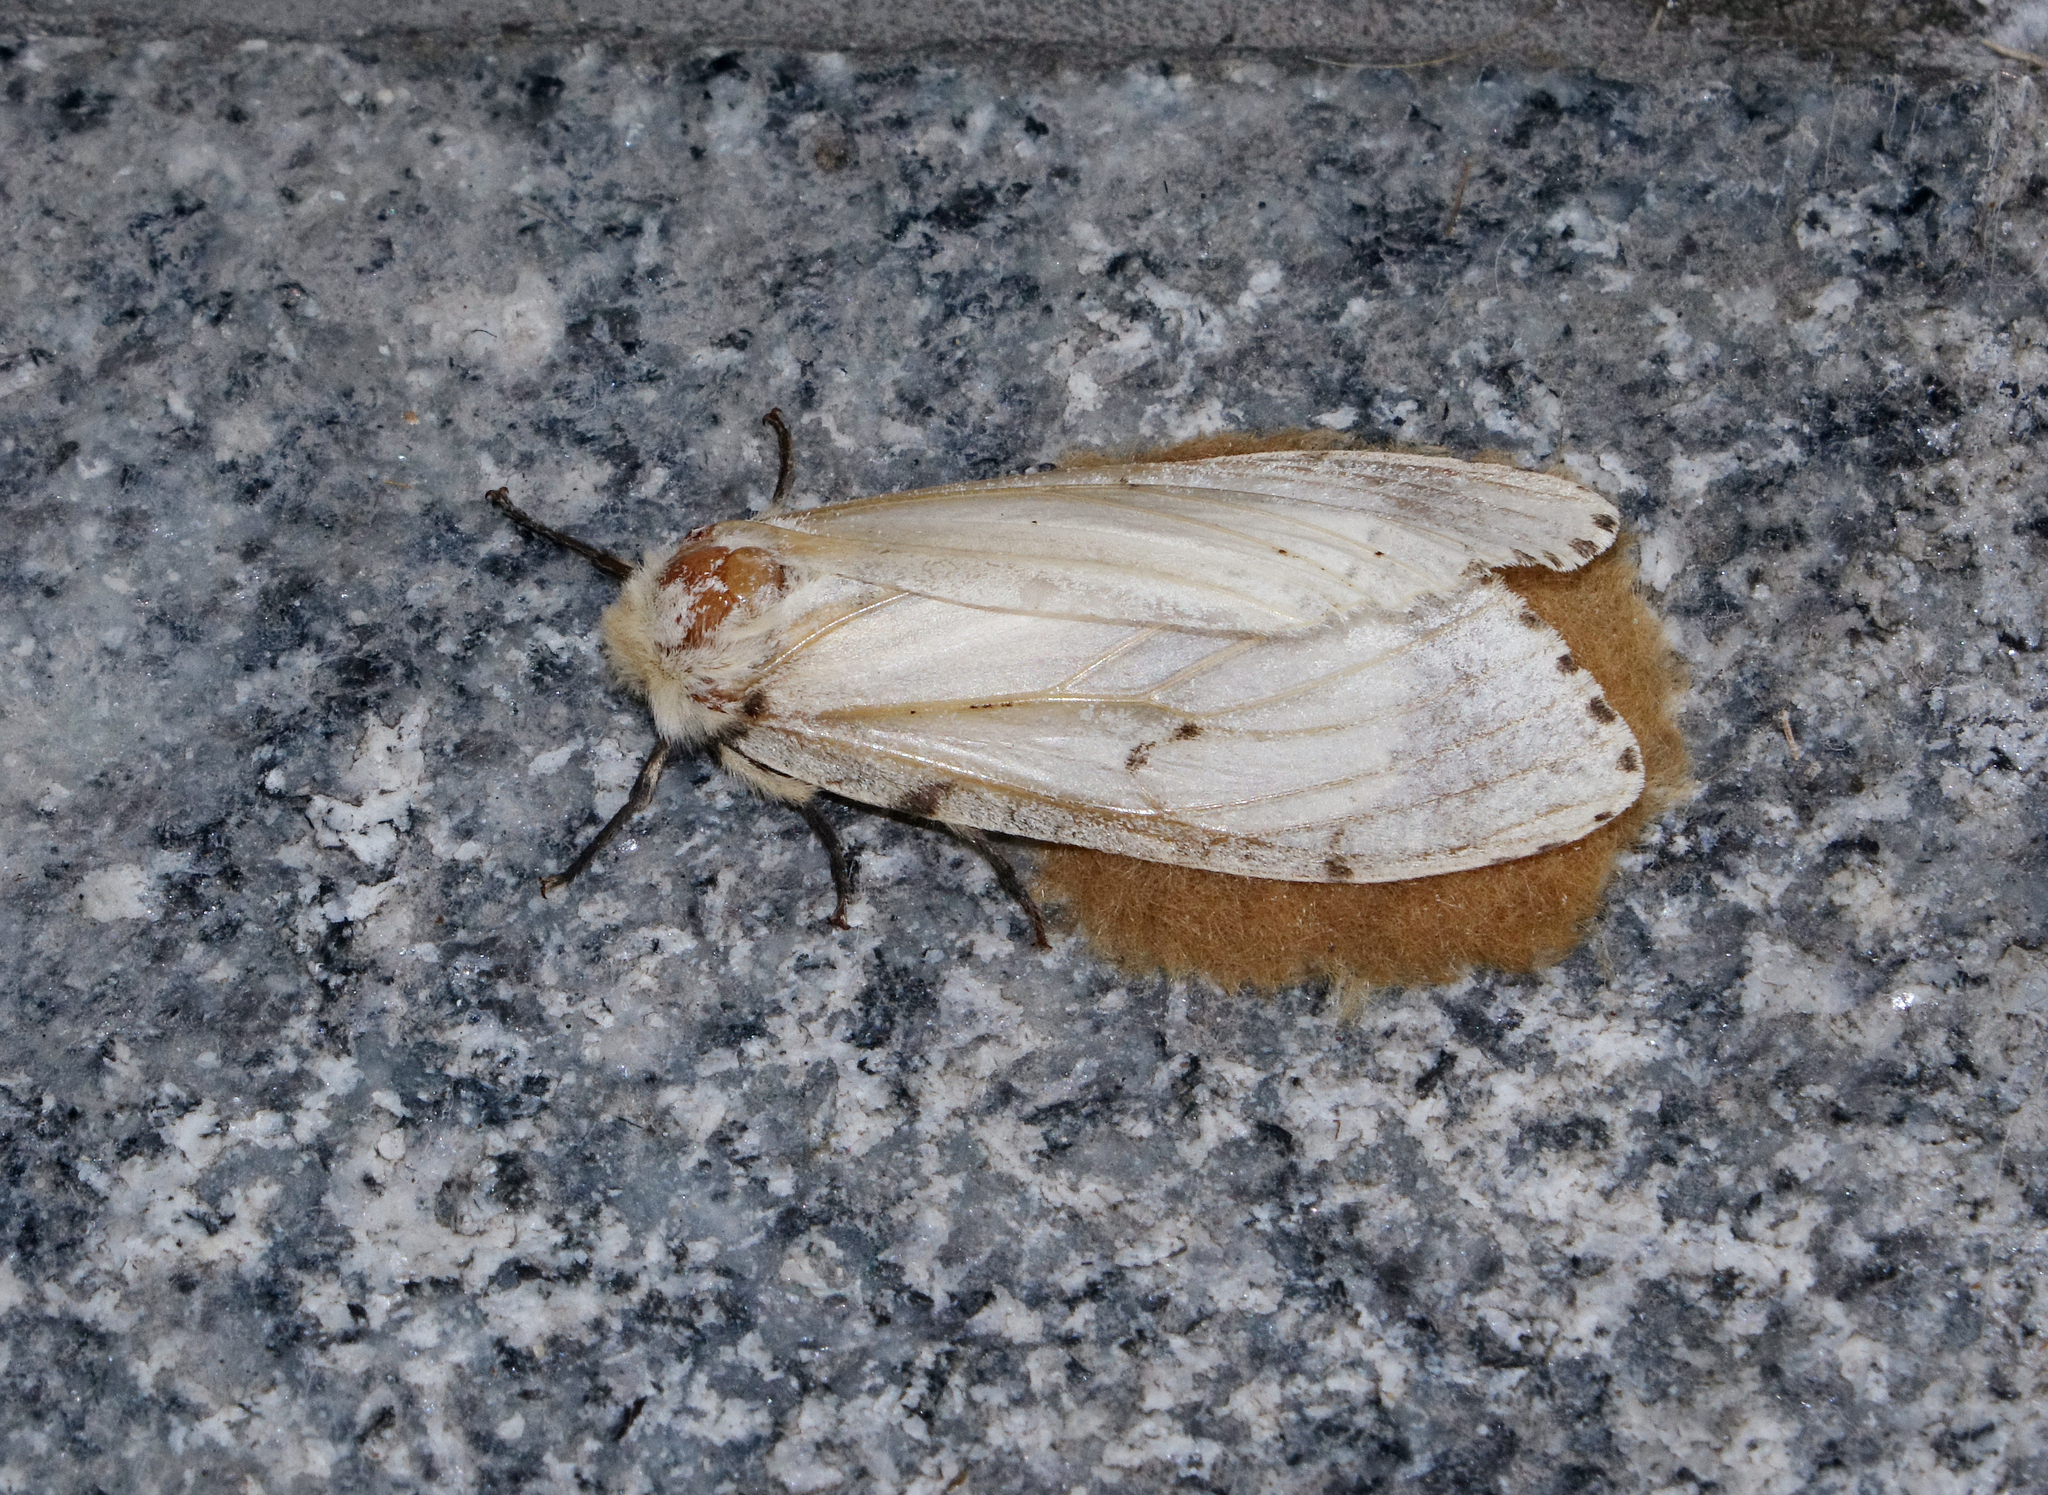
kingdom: Animalia
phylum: Arthropoda
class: Insecta
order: Lepidoptera
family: Erebidae
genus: Lymantria
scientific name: Lymantria dispar
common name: Gypsy moth
